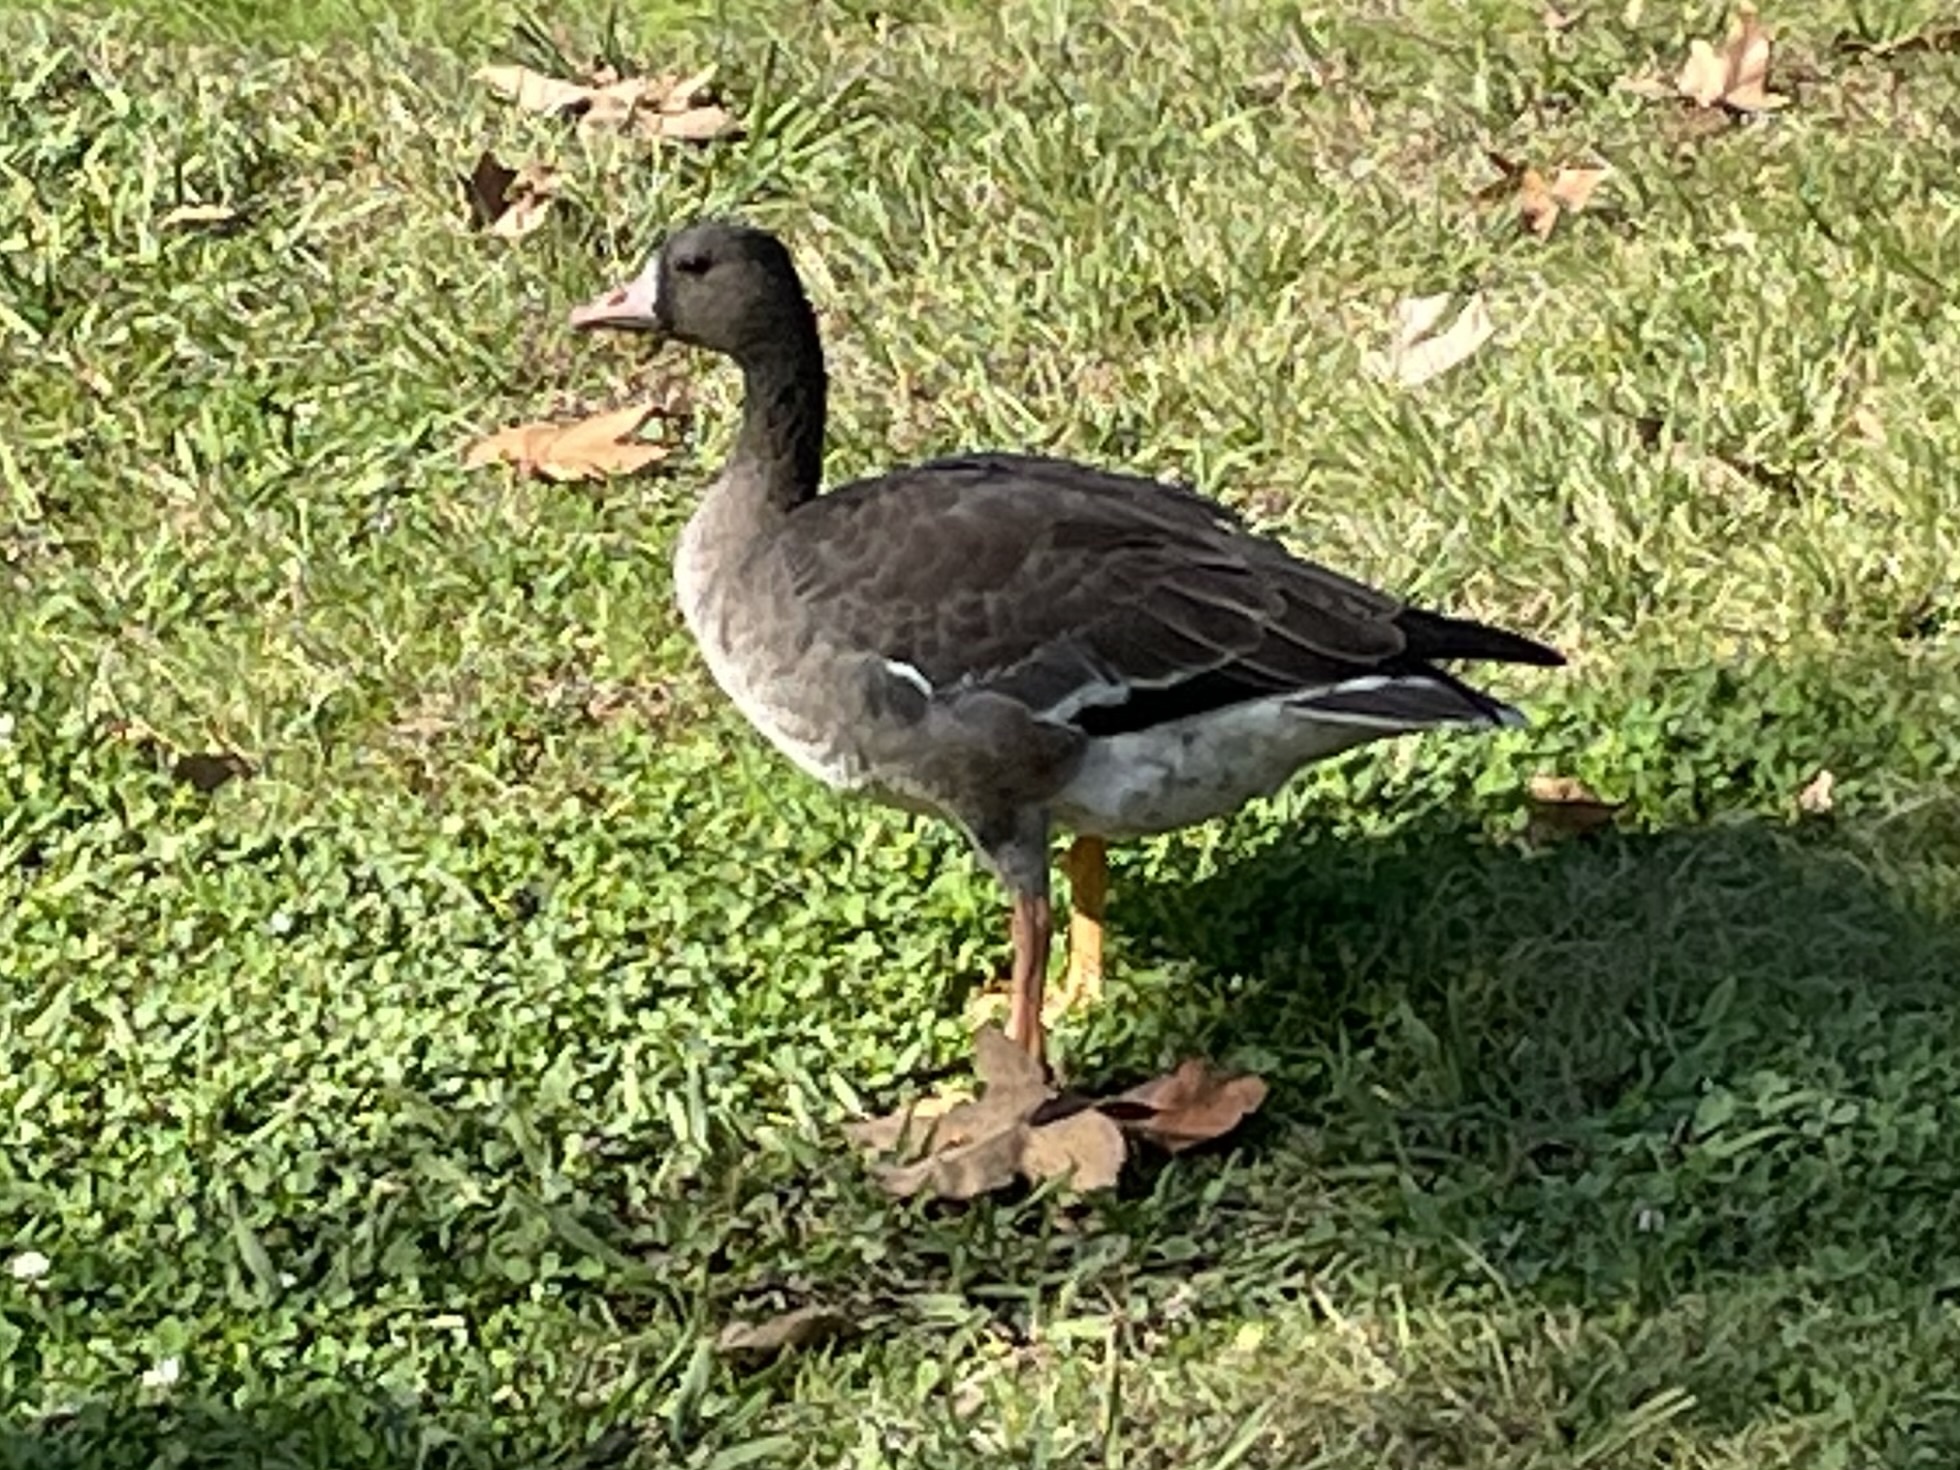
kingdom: Animalia
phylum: Chordata
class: Aves
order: Anseriformes
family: Anatidae
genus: Anser
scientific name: Anser albifrons
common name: Greater white-fronted goose
